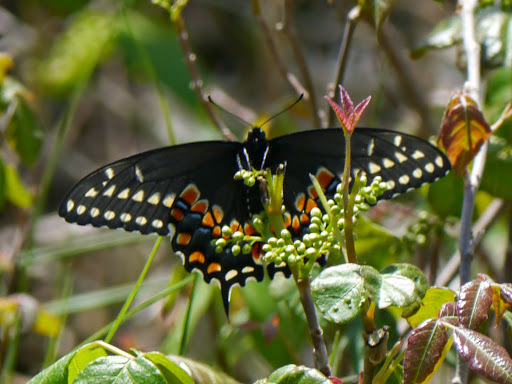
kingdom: Animalia
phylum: Arthropoda
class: Insecta
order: Lepidoptera
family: Papilionidae
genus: Papilio
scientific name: Papilio polyxenes
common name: Black swallowtail
